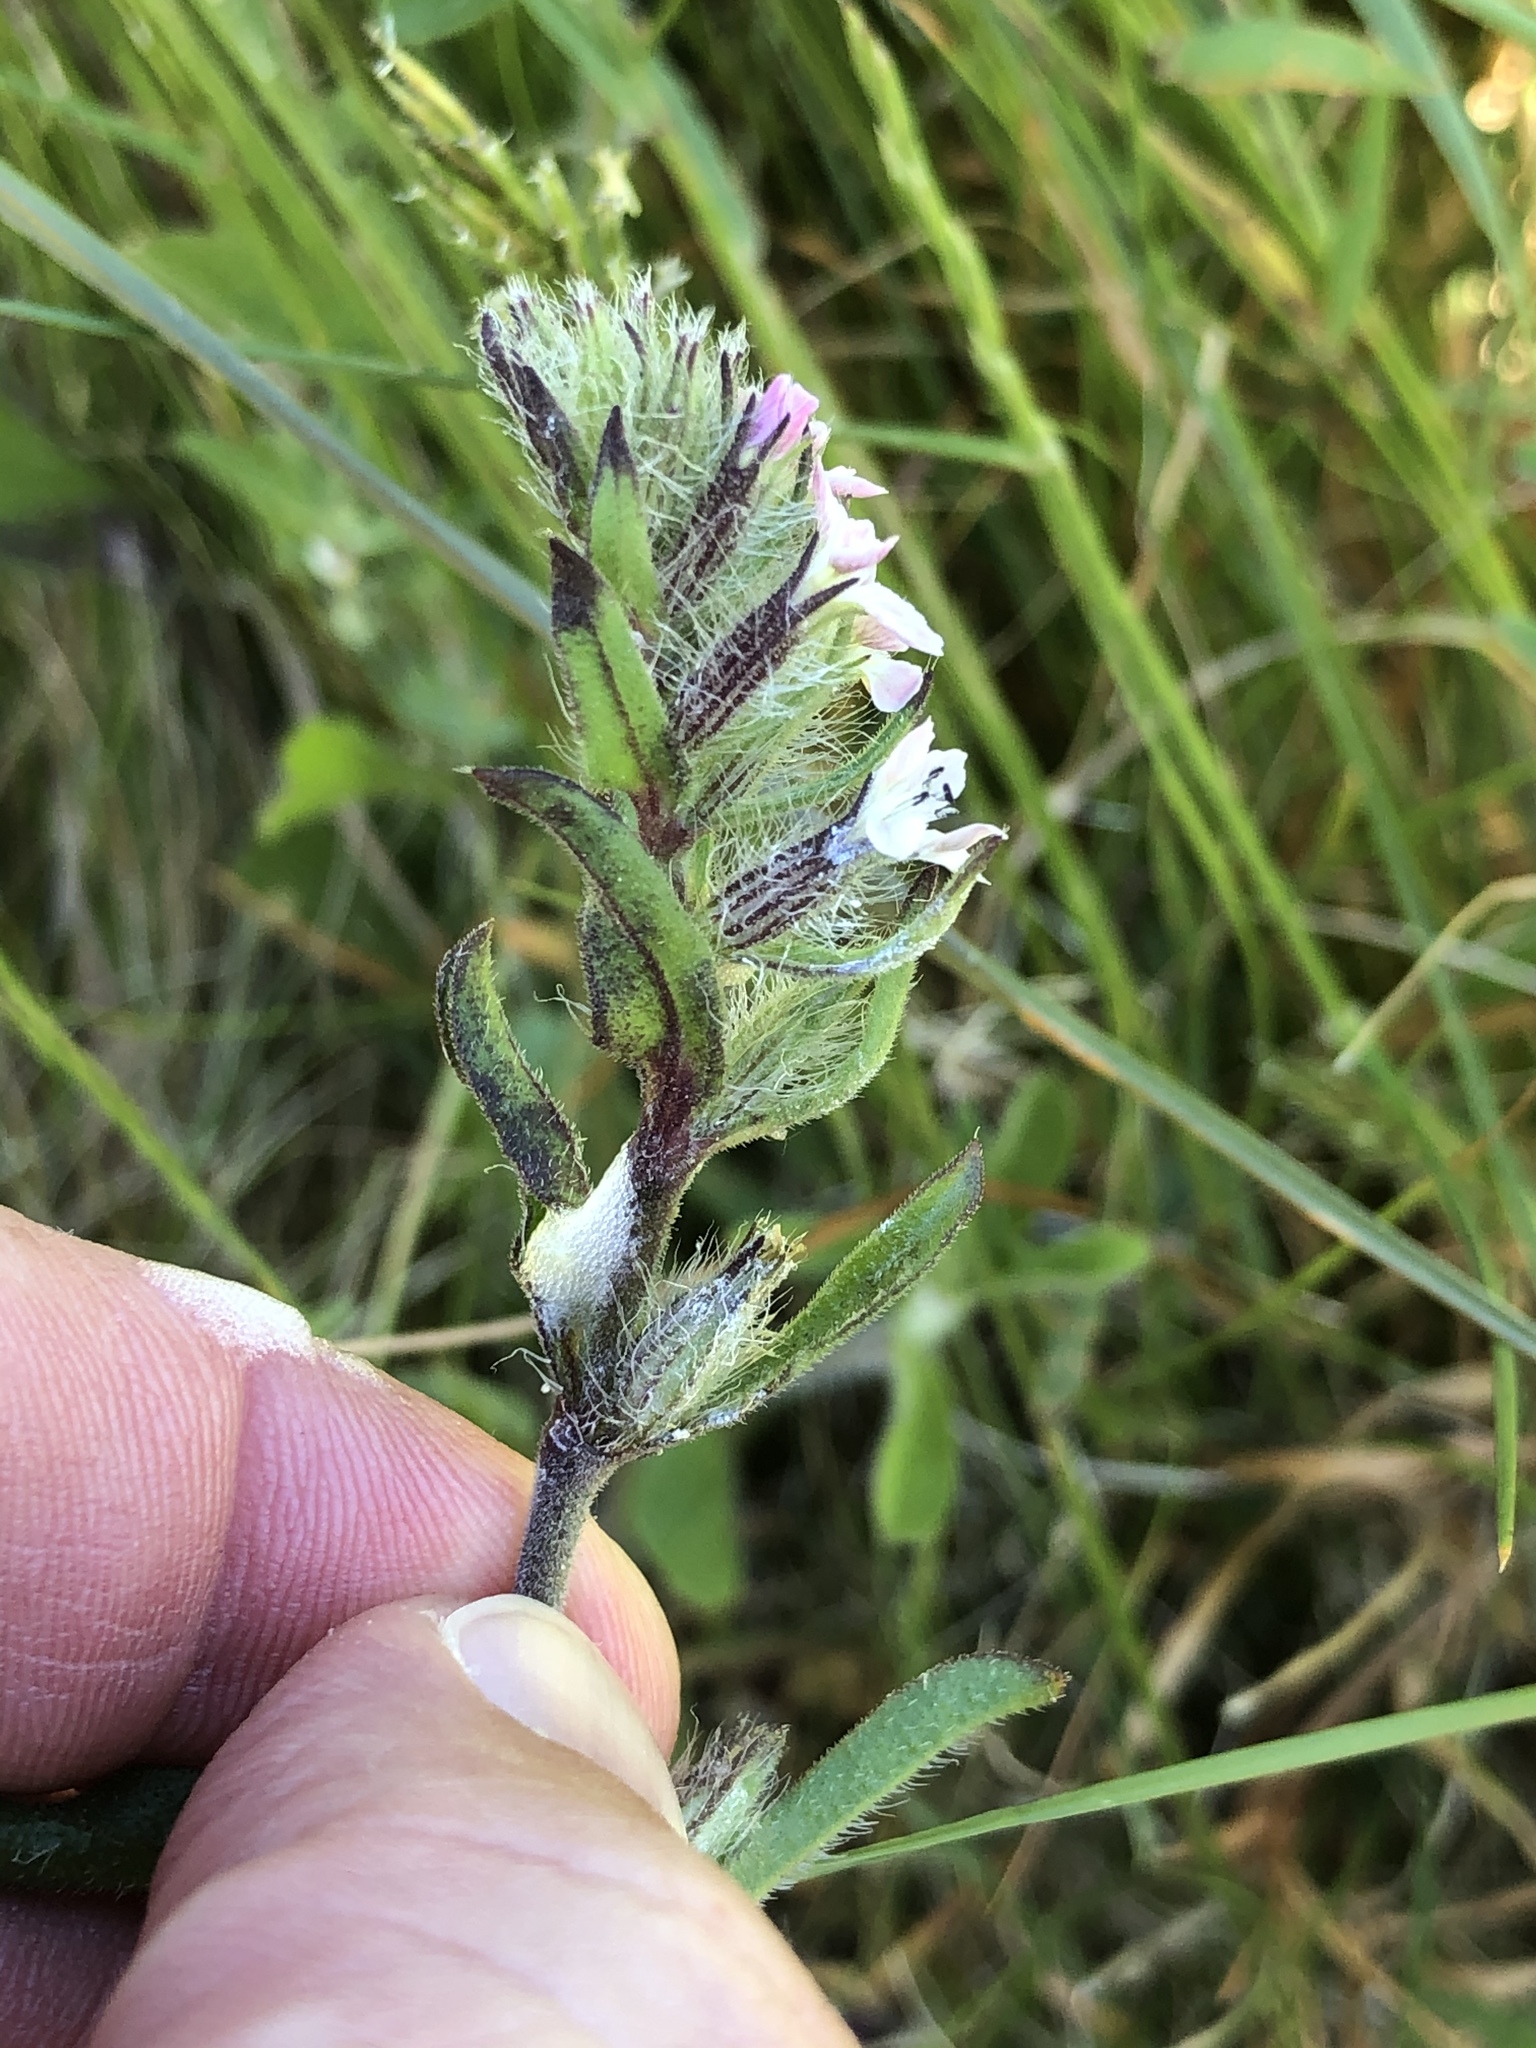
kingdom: Plantae
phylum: Tracheophyta
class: Magnoliopsida
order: Caryophyllales
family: Caryophyllaceae
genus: Silene
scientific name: Silene gallica
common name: Small-flowered catchfly
